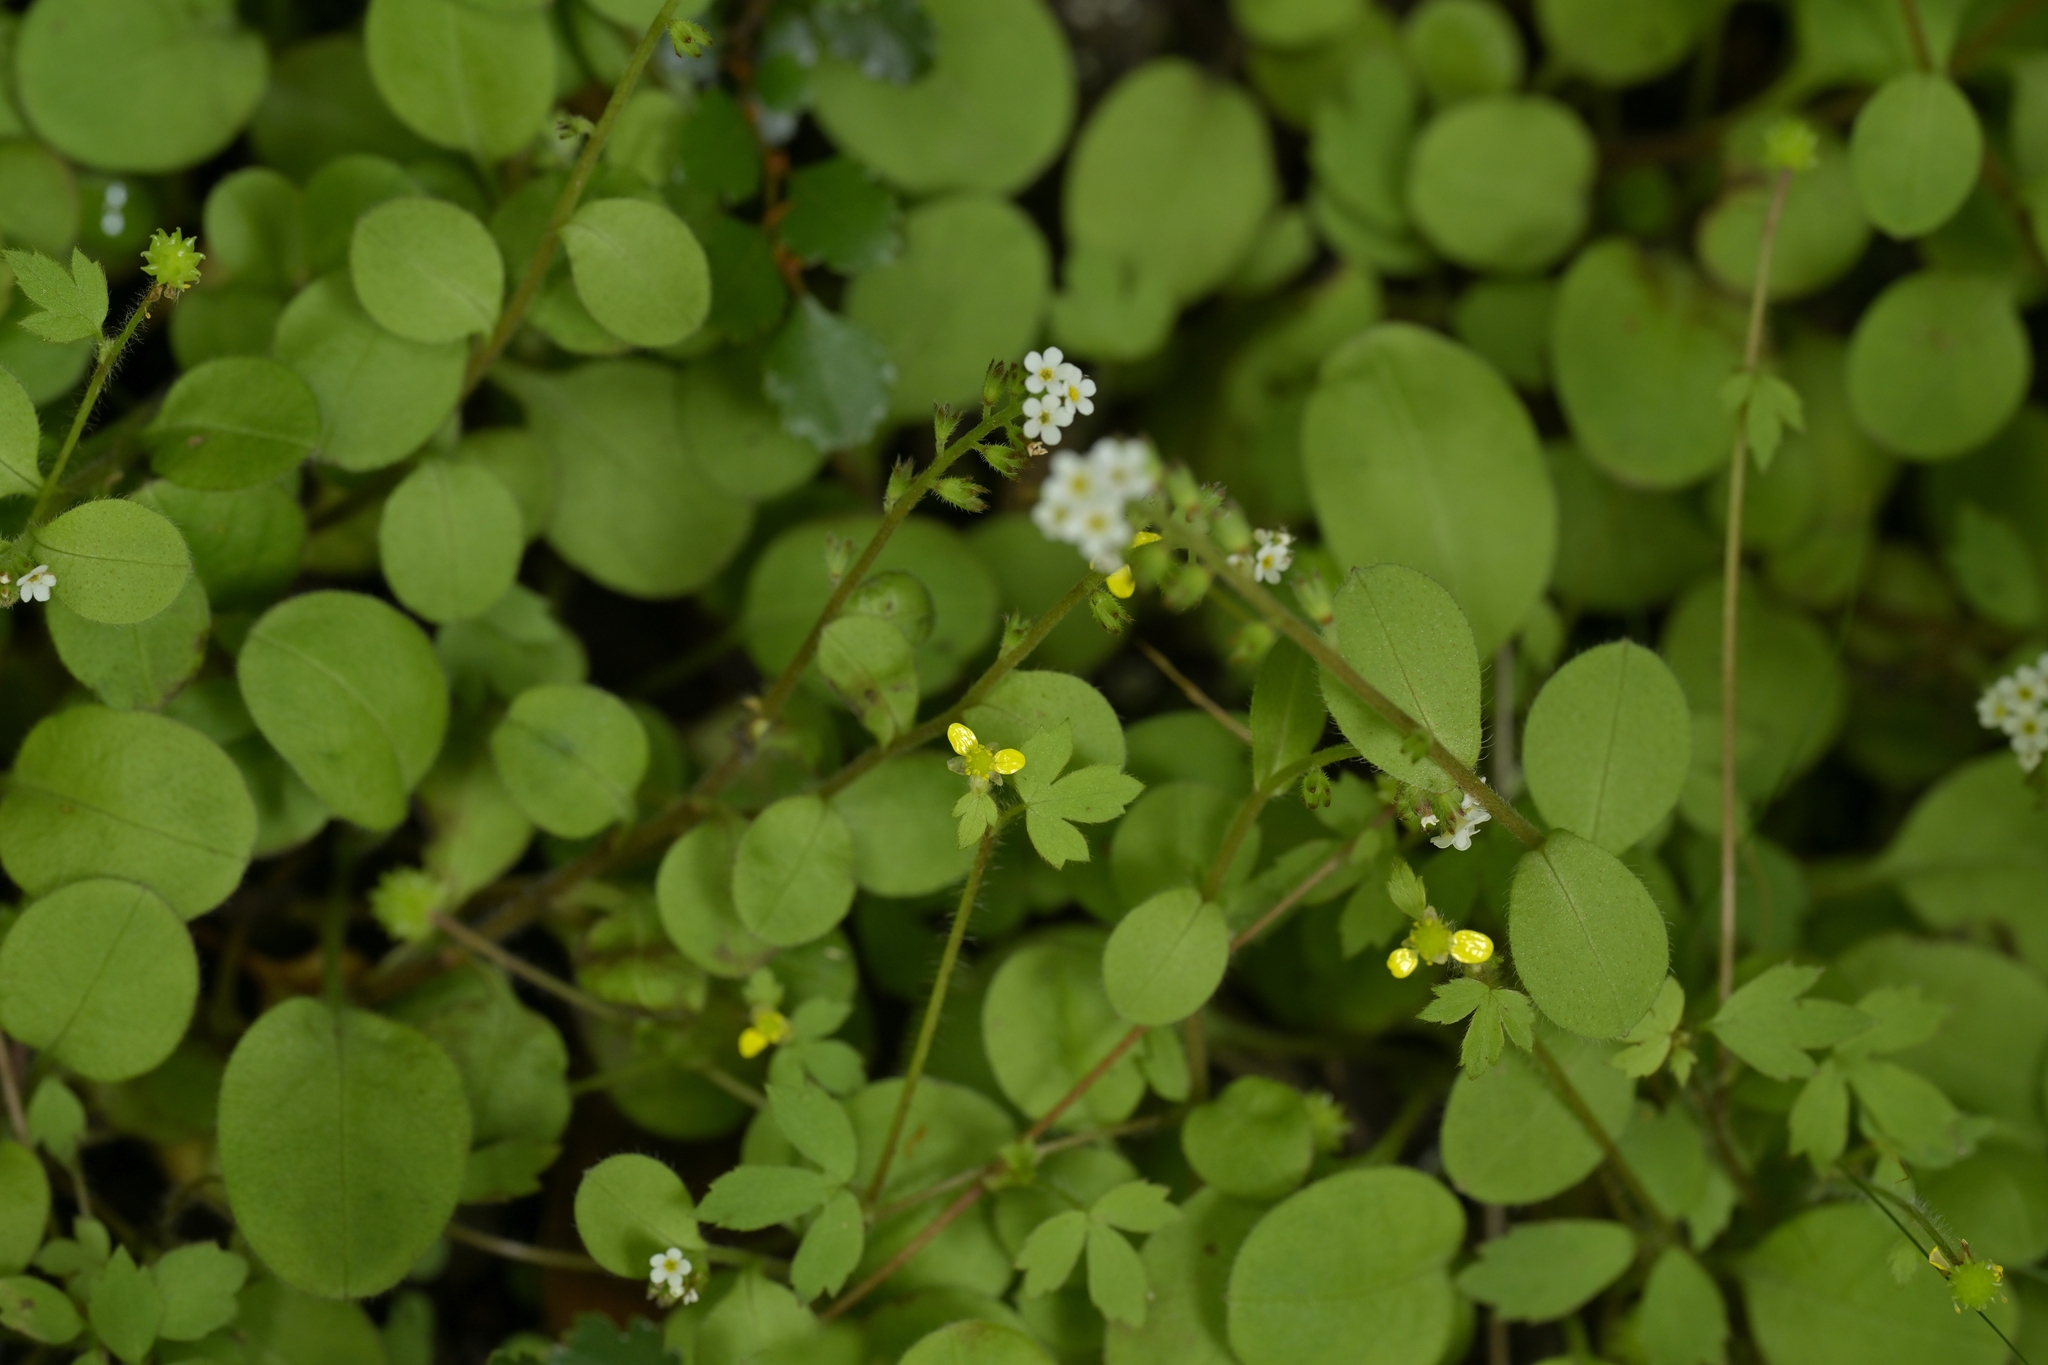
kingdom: Plantae
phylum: Tracheophyta
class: Magnoliopsida
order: Ranunculales
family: Ranunculaceae
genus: Ranunculus
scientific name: Ranunculus reflexus
